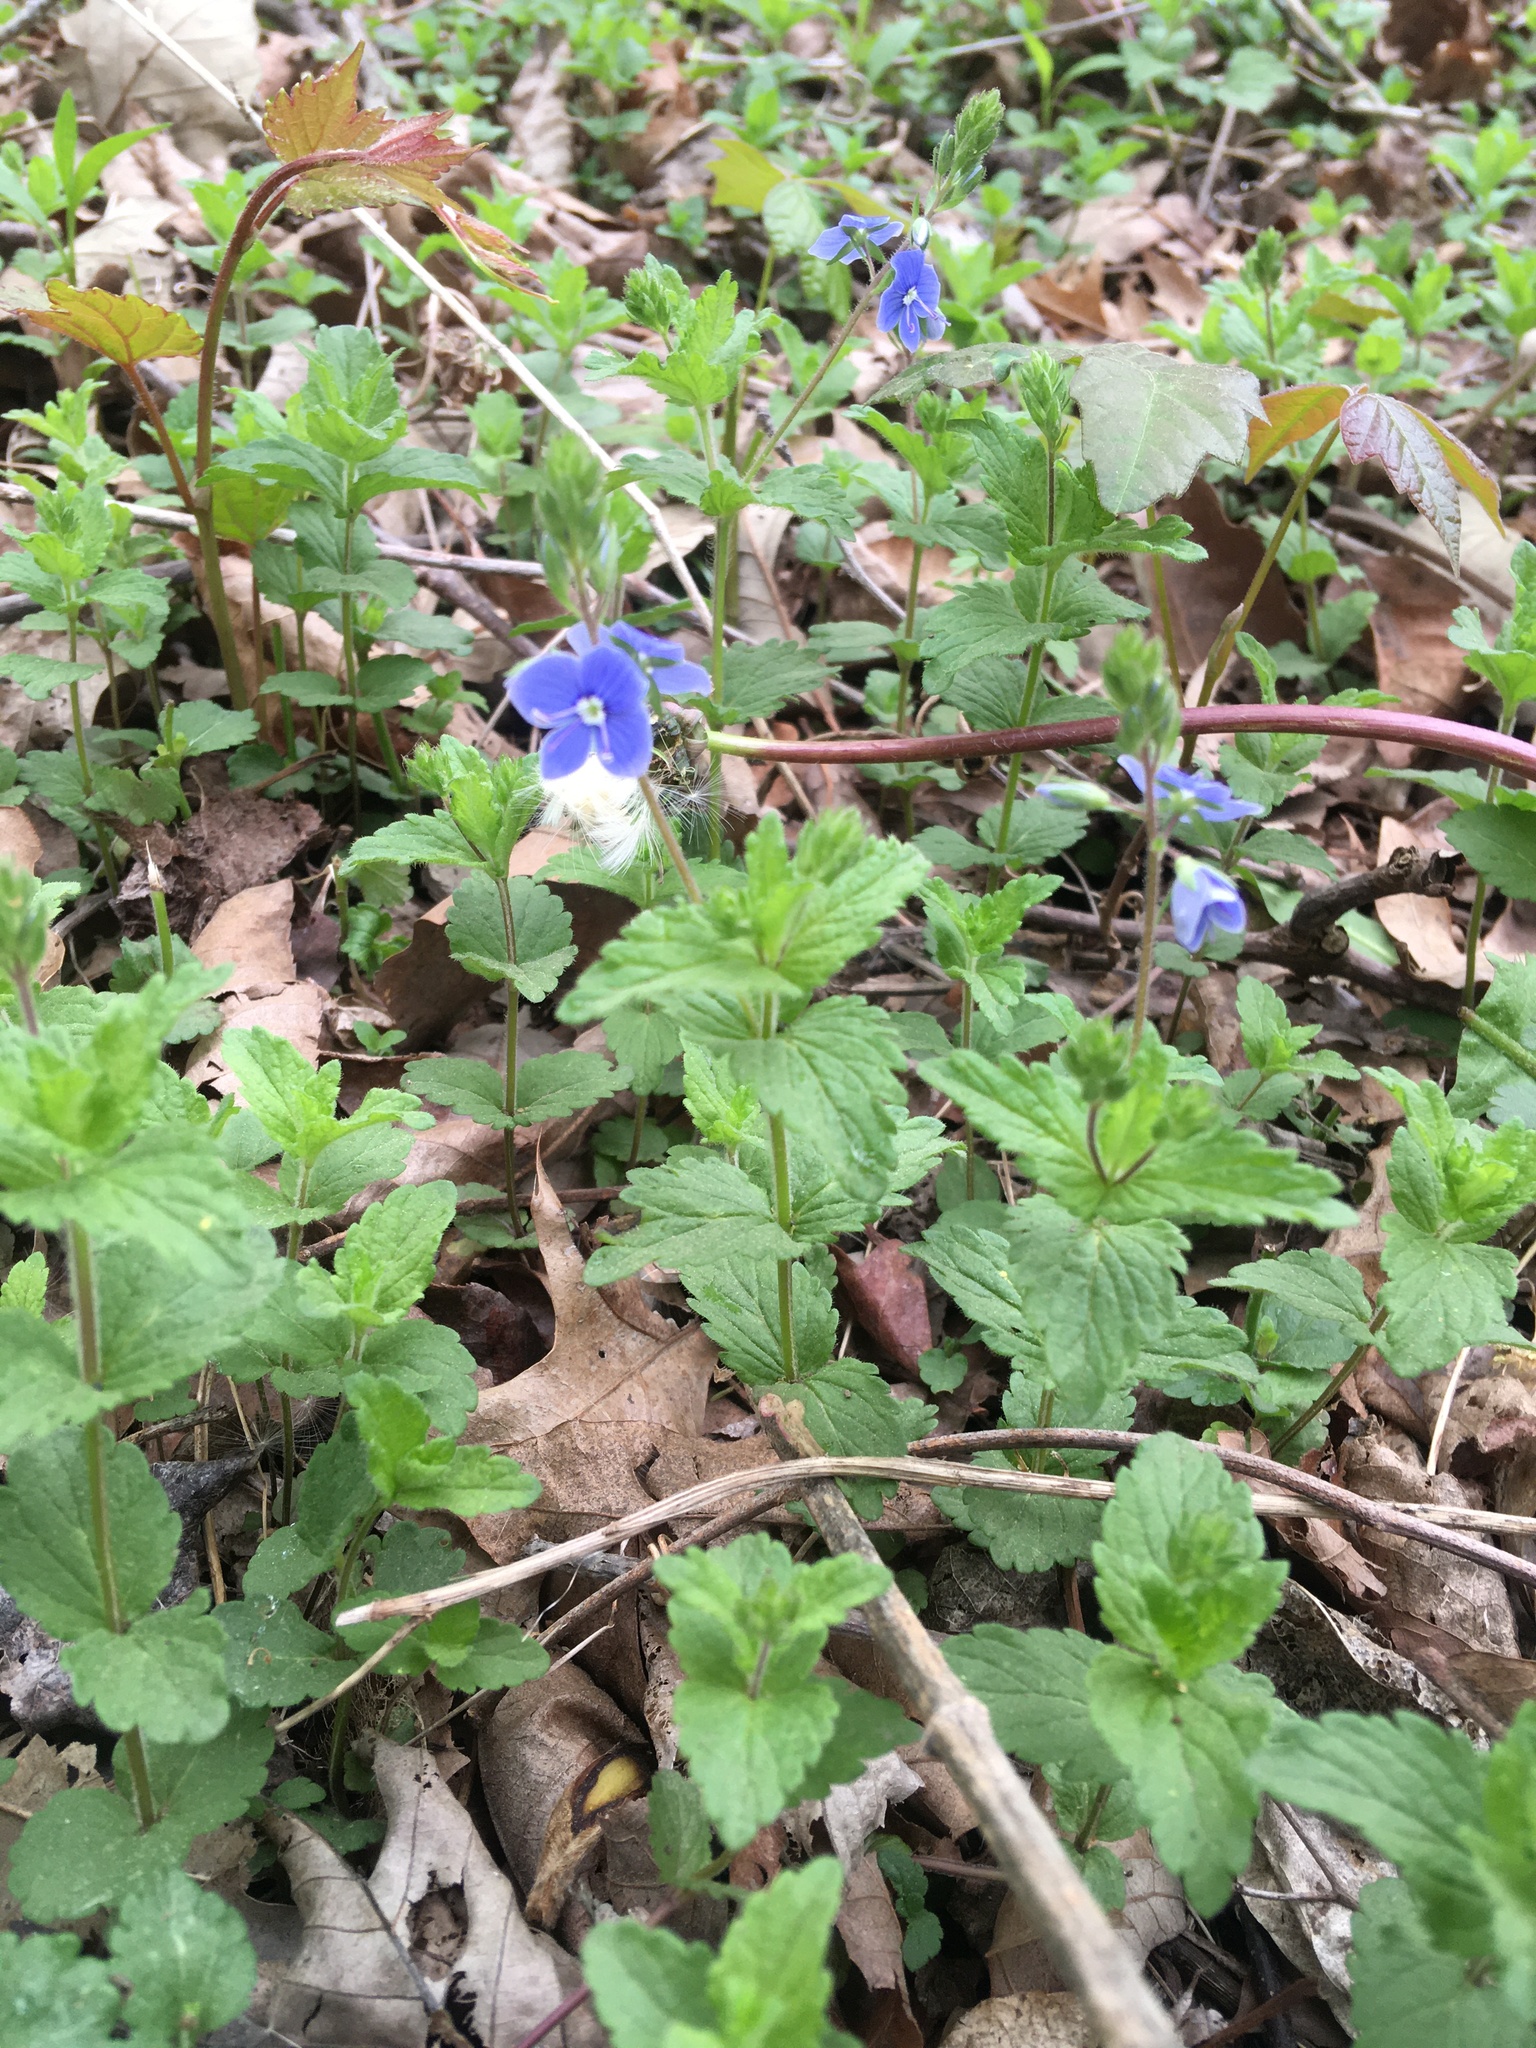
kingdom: Plantae
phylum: Tracheophyta
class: Magnoliopsida
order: Lamiales
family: Plantaginaceae
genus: Veronica
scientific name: Veronica chamaedrys
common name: Germander speedwell
